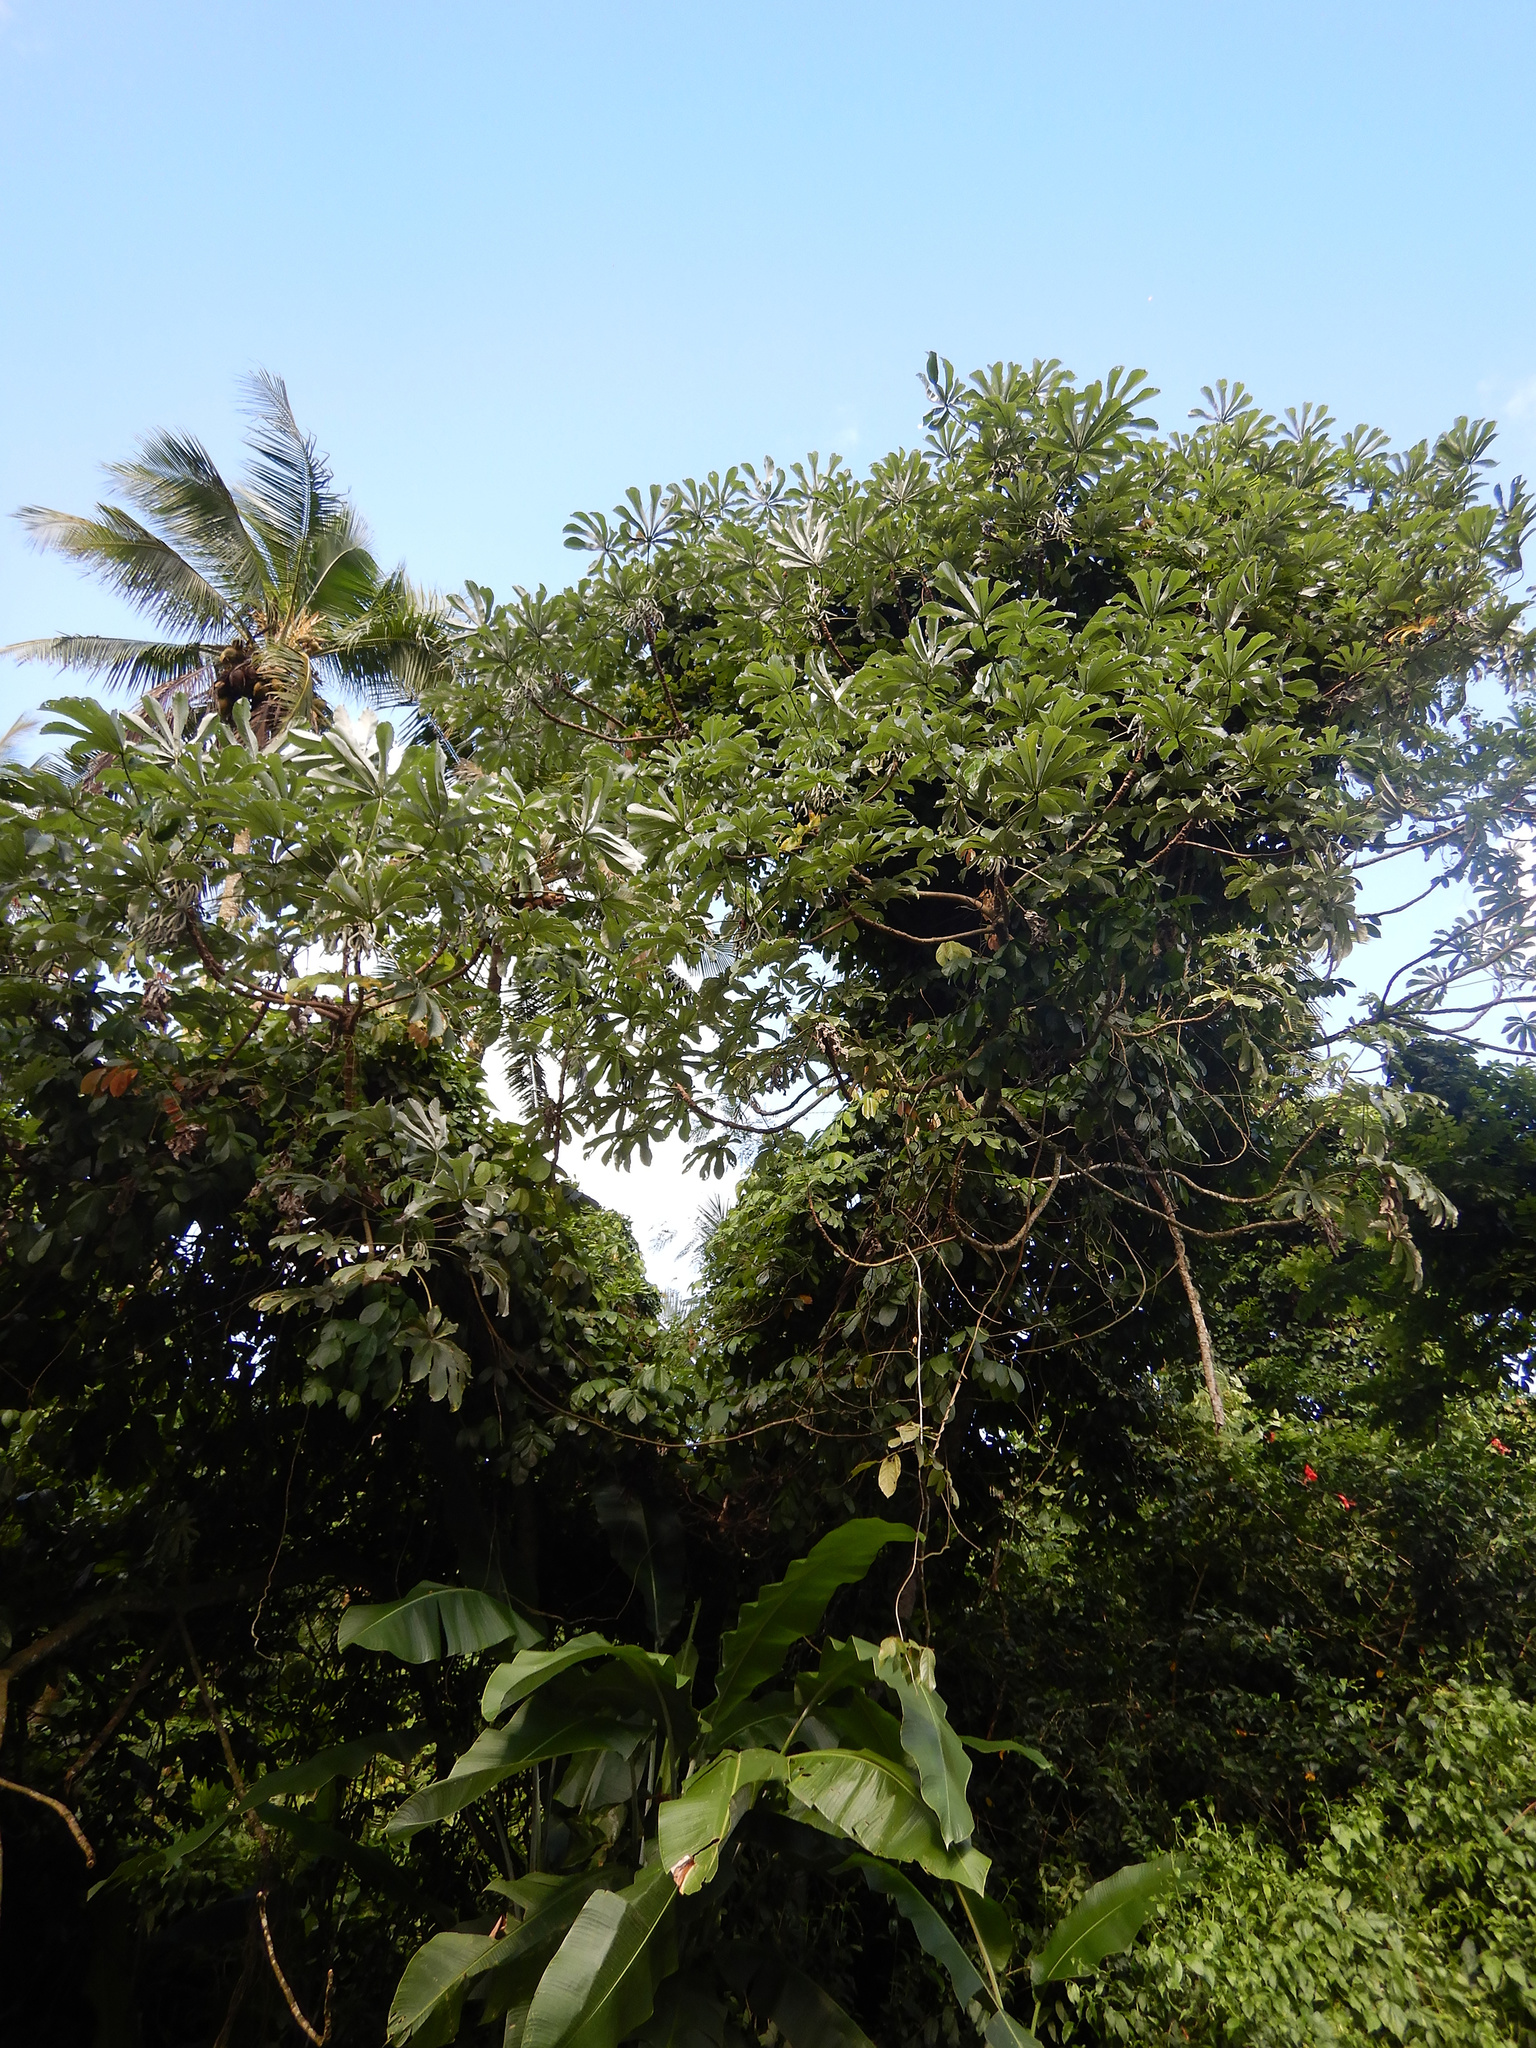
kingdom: Plantae
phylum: Tracheophyta
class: Magnoliopsida
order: Rosales
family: Urticaceae
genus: Cecropia
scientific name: Cecropia pachystachya
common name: Ambay pumpwood
